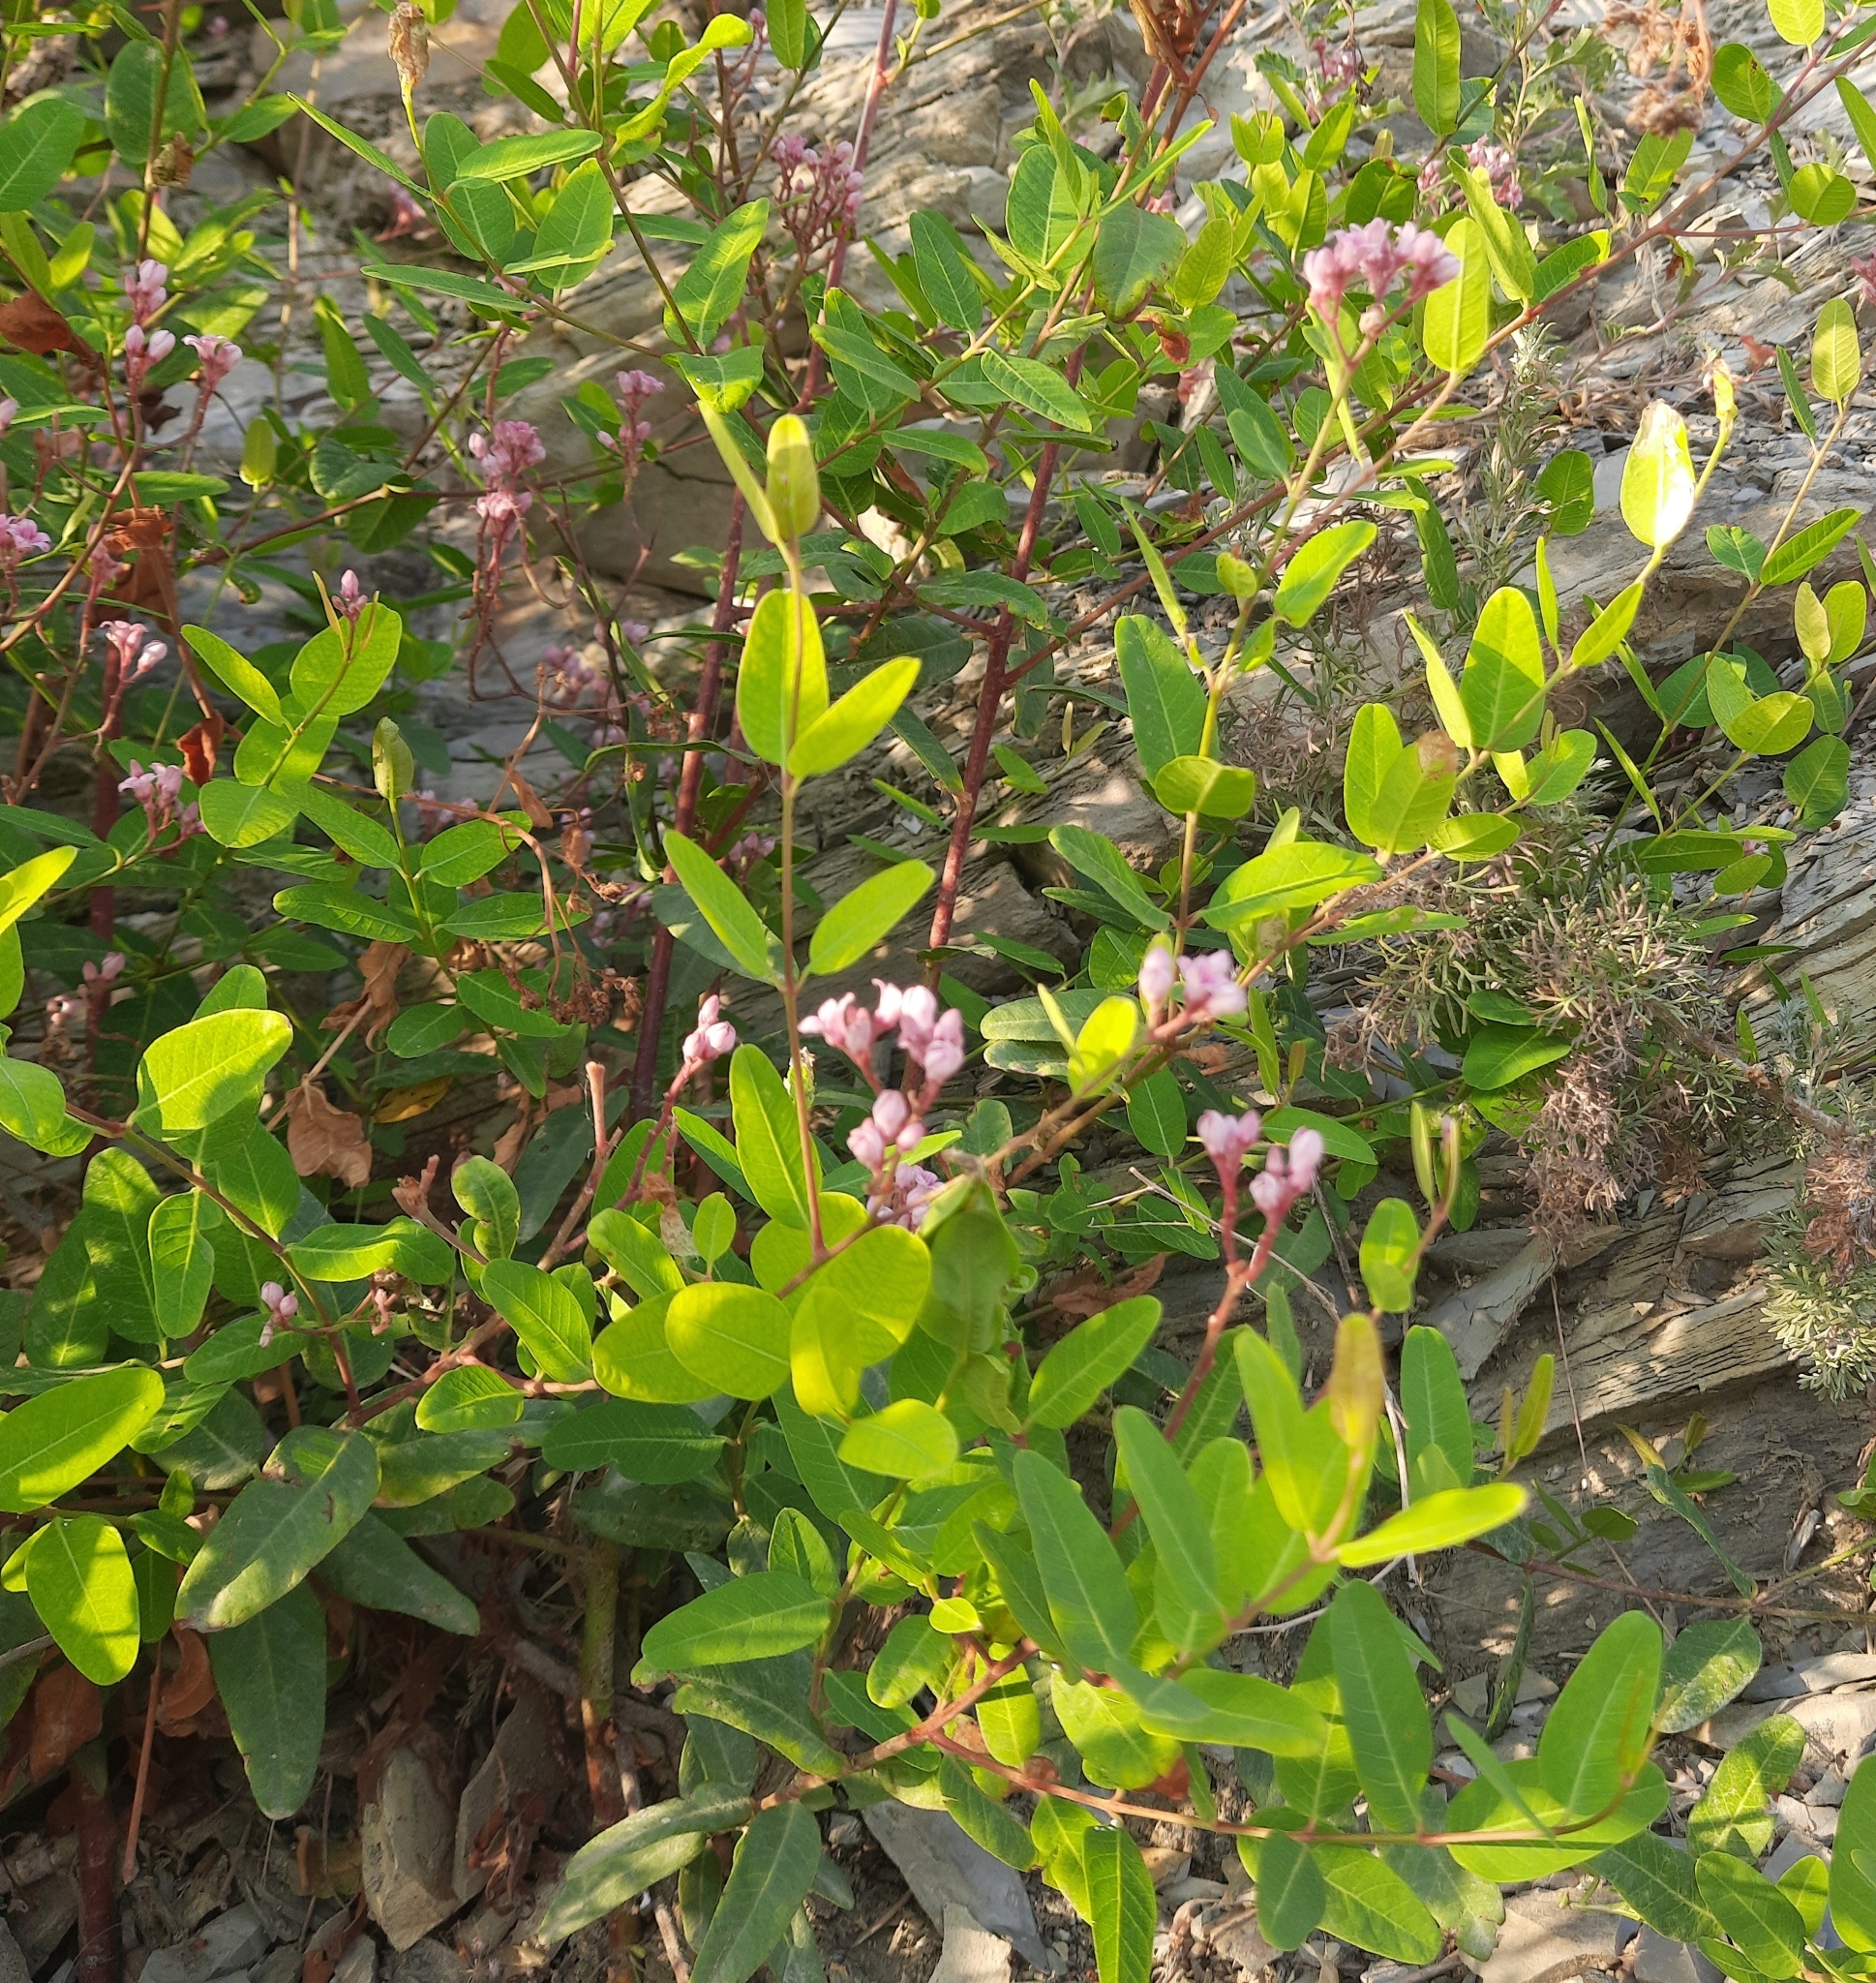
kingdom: Plantae
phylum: Tracheophyta
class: Magnoliopsida
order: Gentianales
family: Apocynaceae
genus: Poacynum
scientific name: Poacynum venetum
